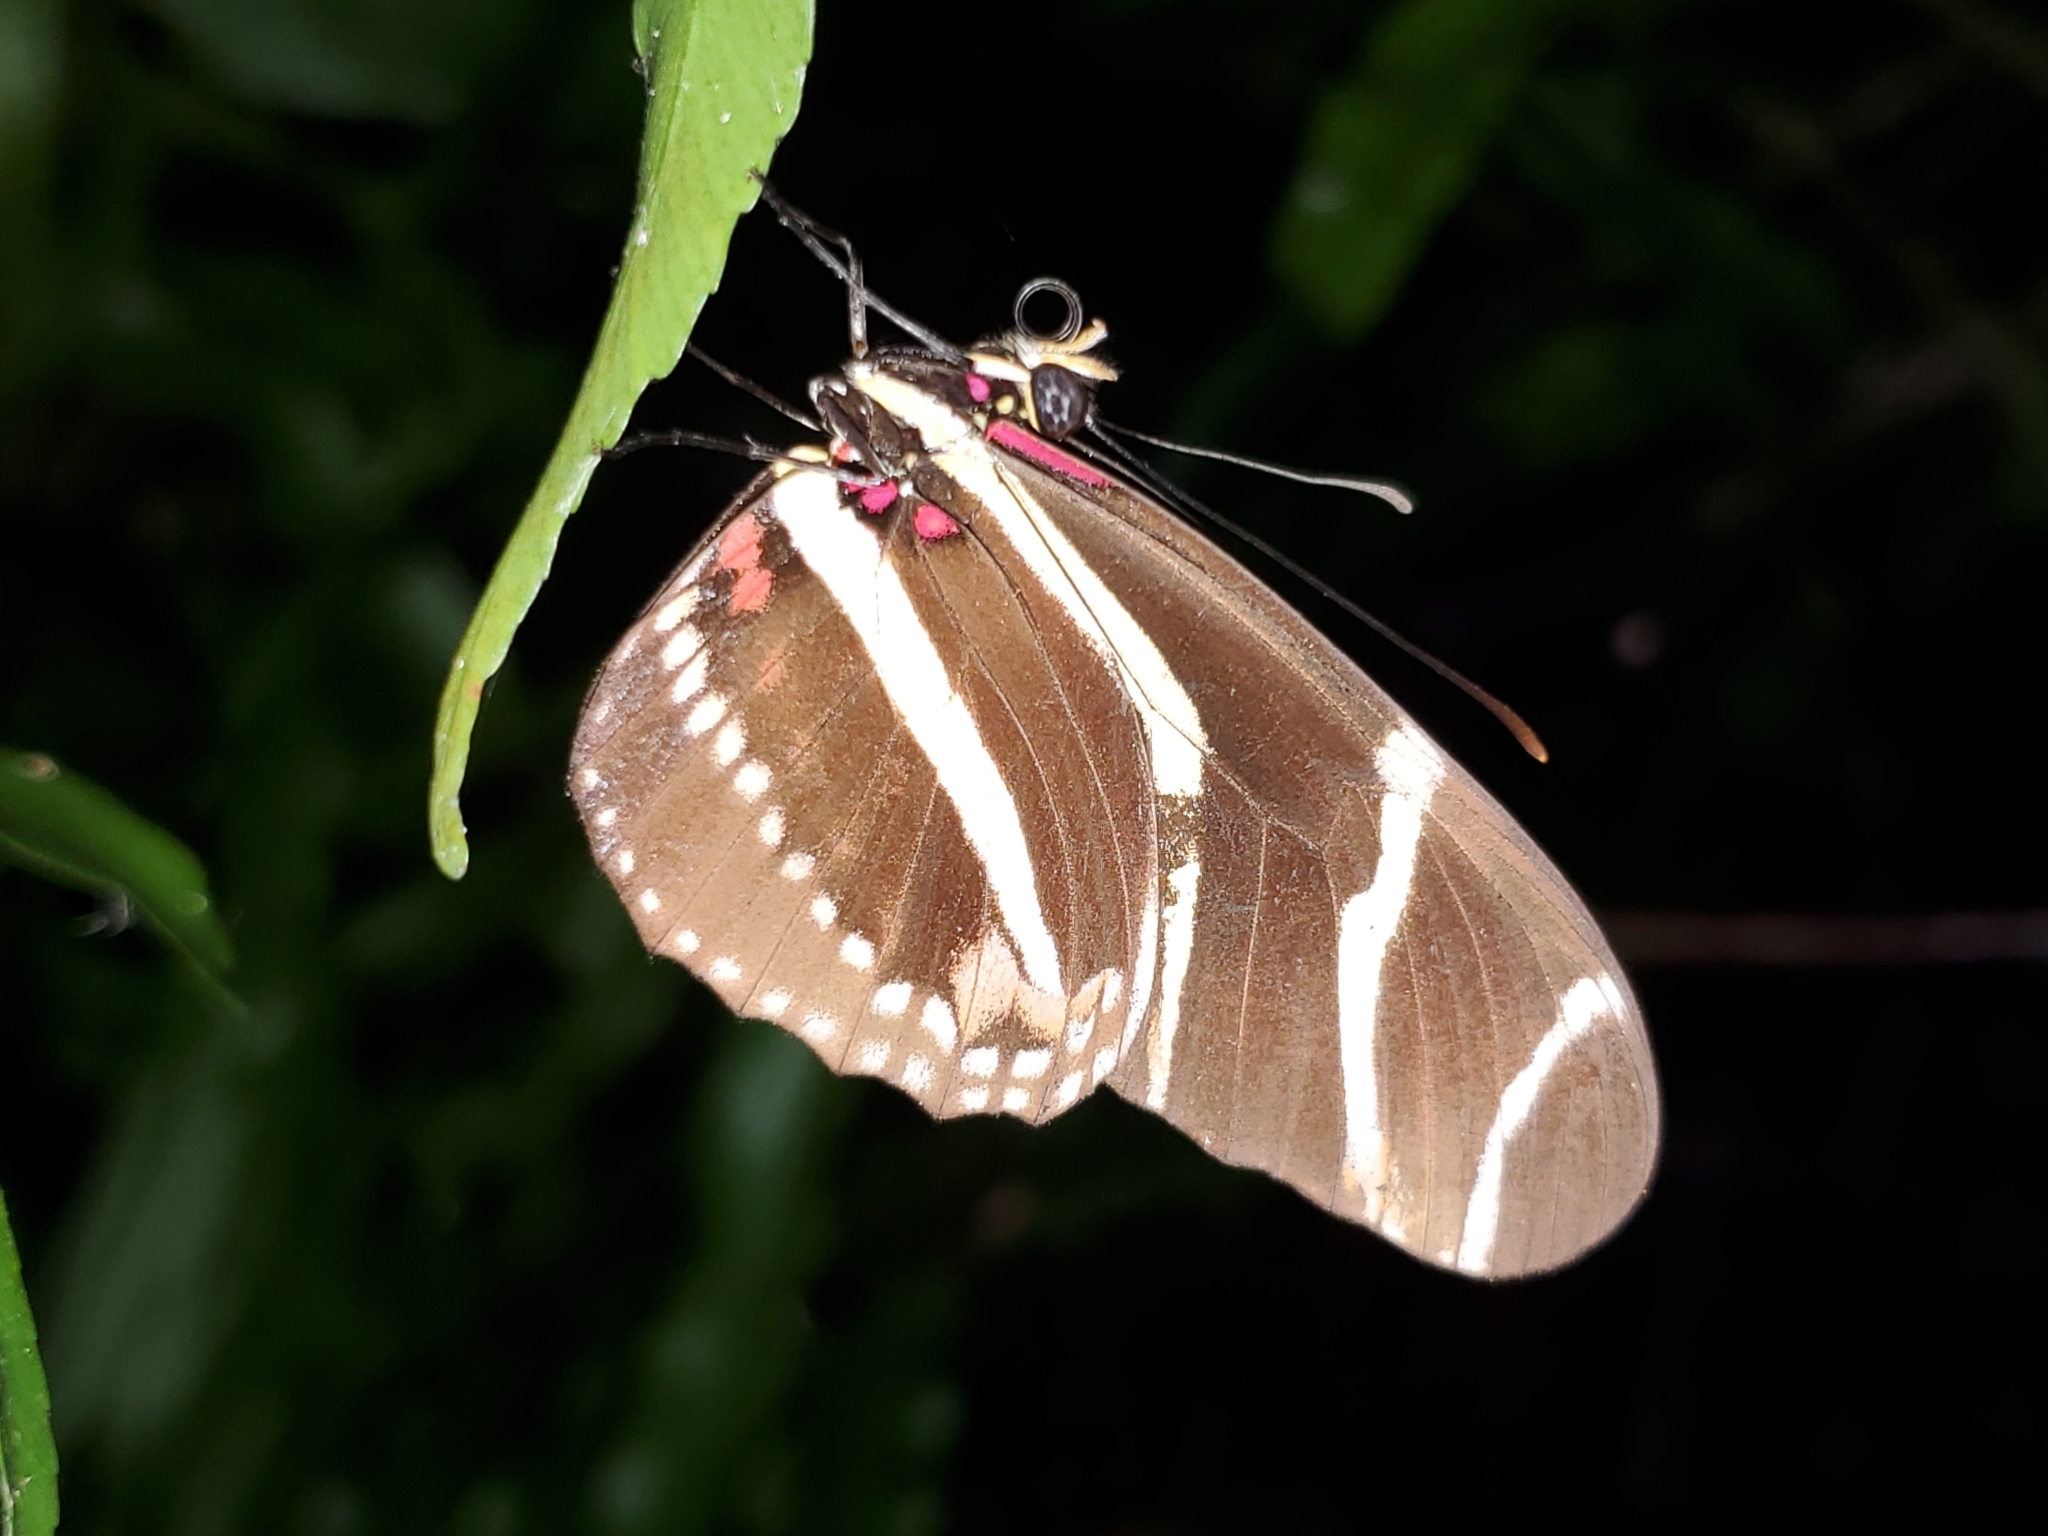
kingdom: Animalia
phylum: Arthropoda
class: Insecta
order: Lepidoptera
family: Nymphalidae
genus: Heliconius
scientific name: Heliconius charithonia
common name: Zebra long wing
